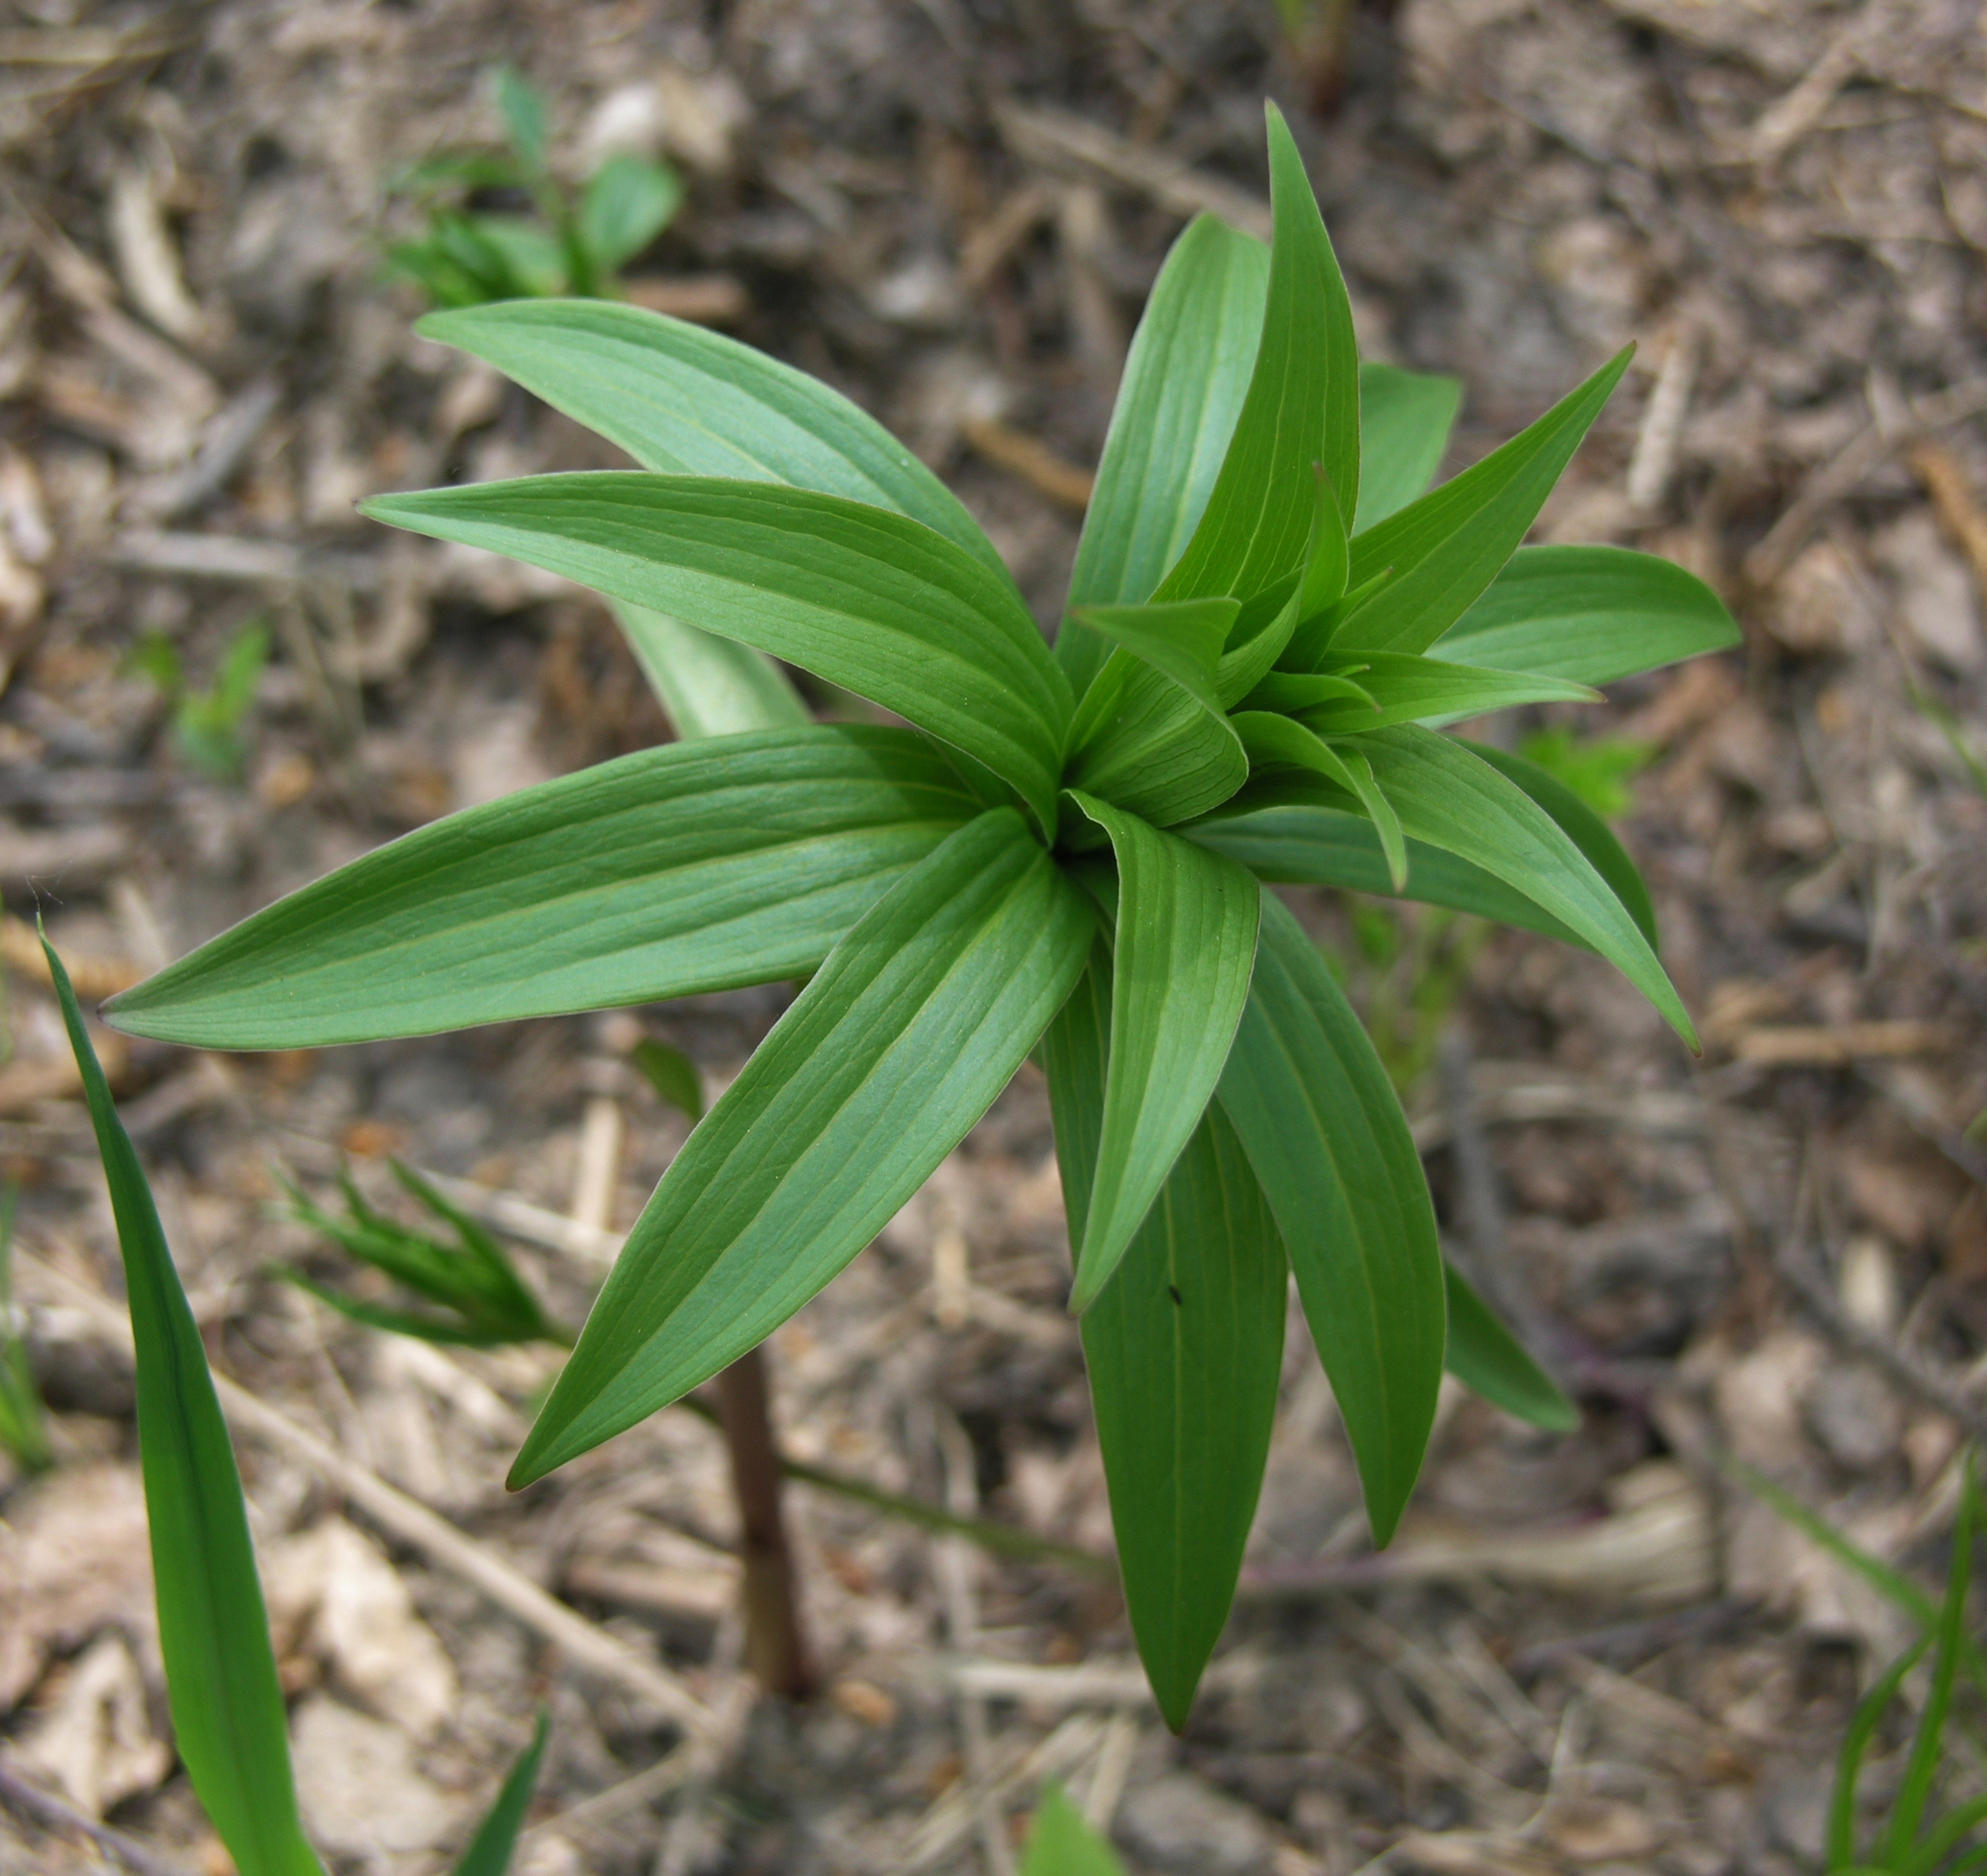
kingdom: Plantae
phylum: Tracheophyta
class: Liliopsida
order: Liliales
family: Liliaceae
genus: Lilium
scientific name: Lilium martagon
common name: Martagon lily
